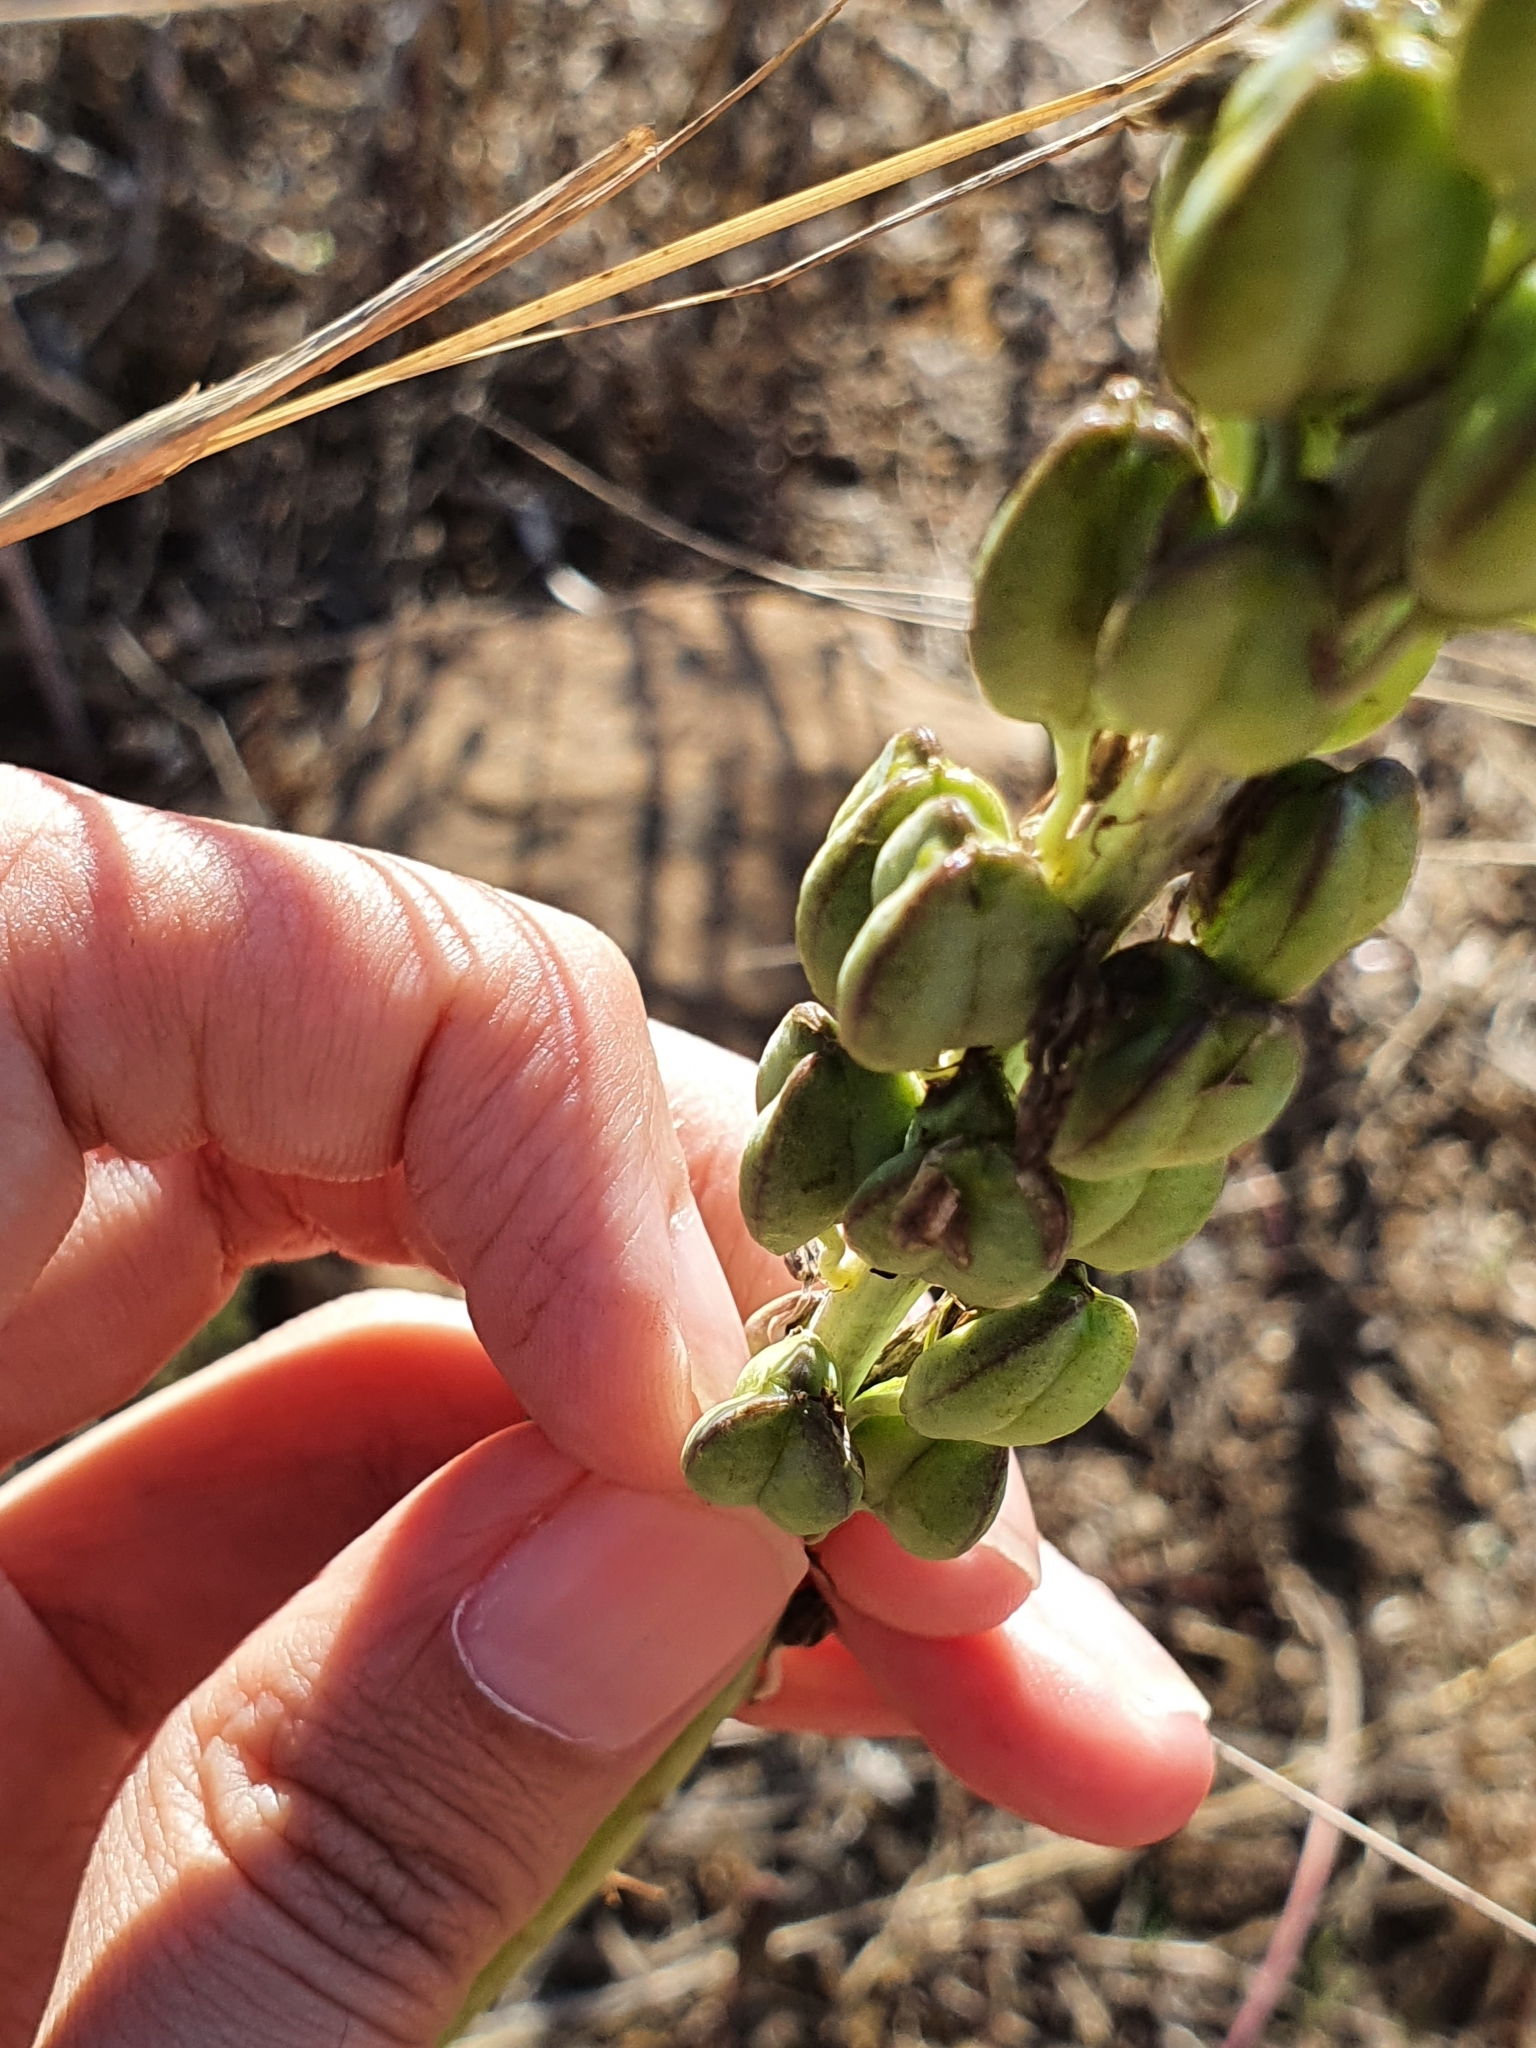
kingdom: Plantae
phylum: Tracheophyta
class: Liliopsida
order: Asparagales
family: Asparagaceae
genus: Drimia
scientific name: Drimia anthericoides
